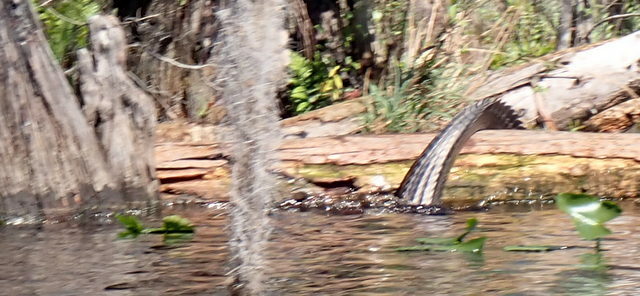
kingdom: Animalia
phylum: Chordata
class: Crocodylia
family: Alligatoridae
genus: Alligator
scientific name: Alligator mississippiensis
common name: American alligator
